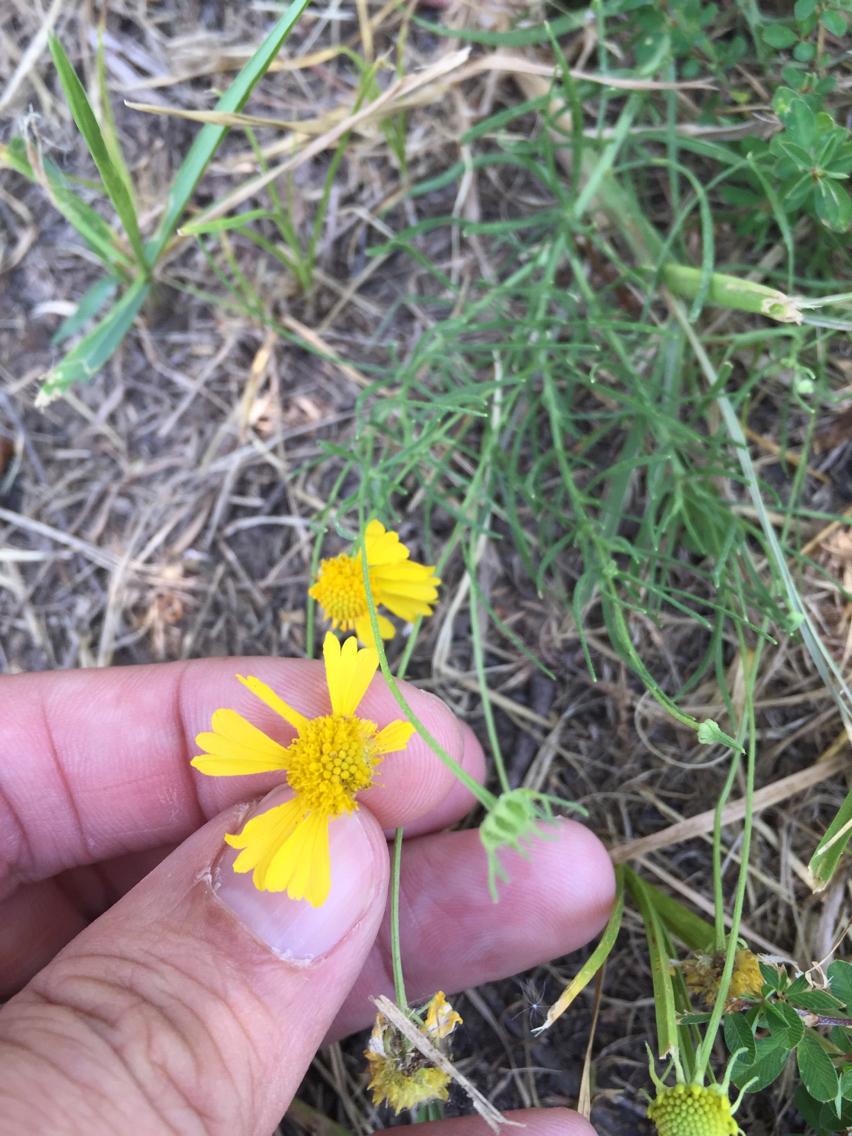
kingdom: Plantae
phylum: Tracheophyta
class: Magnoliopsida
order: Asterales
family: Asteraceae
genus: Helenium
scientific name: Helenium amarum
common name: Bitter sneezeweed
